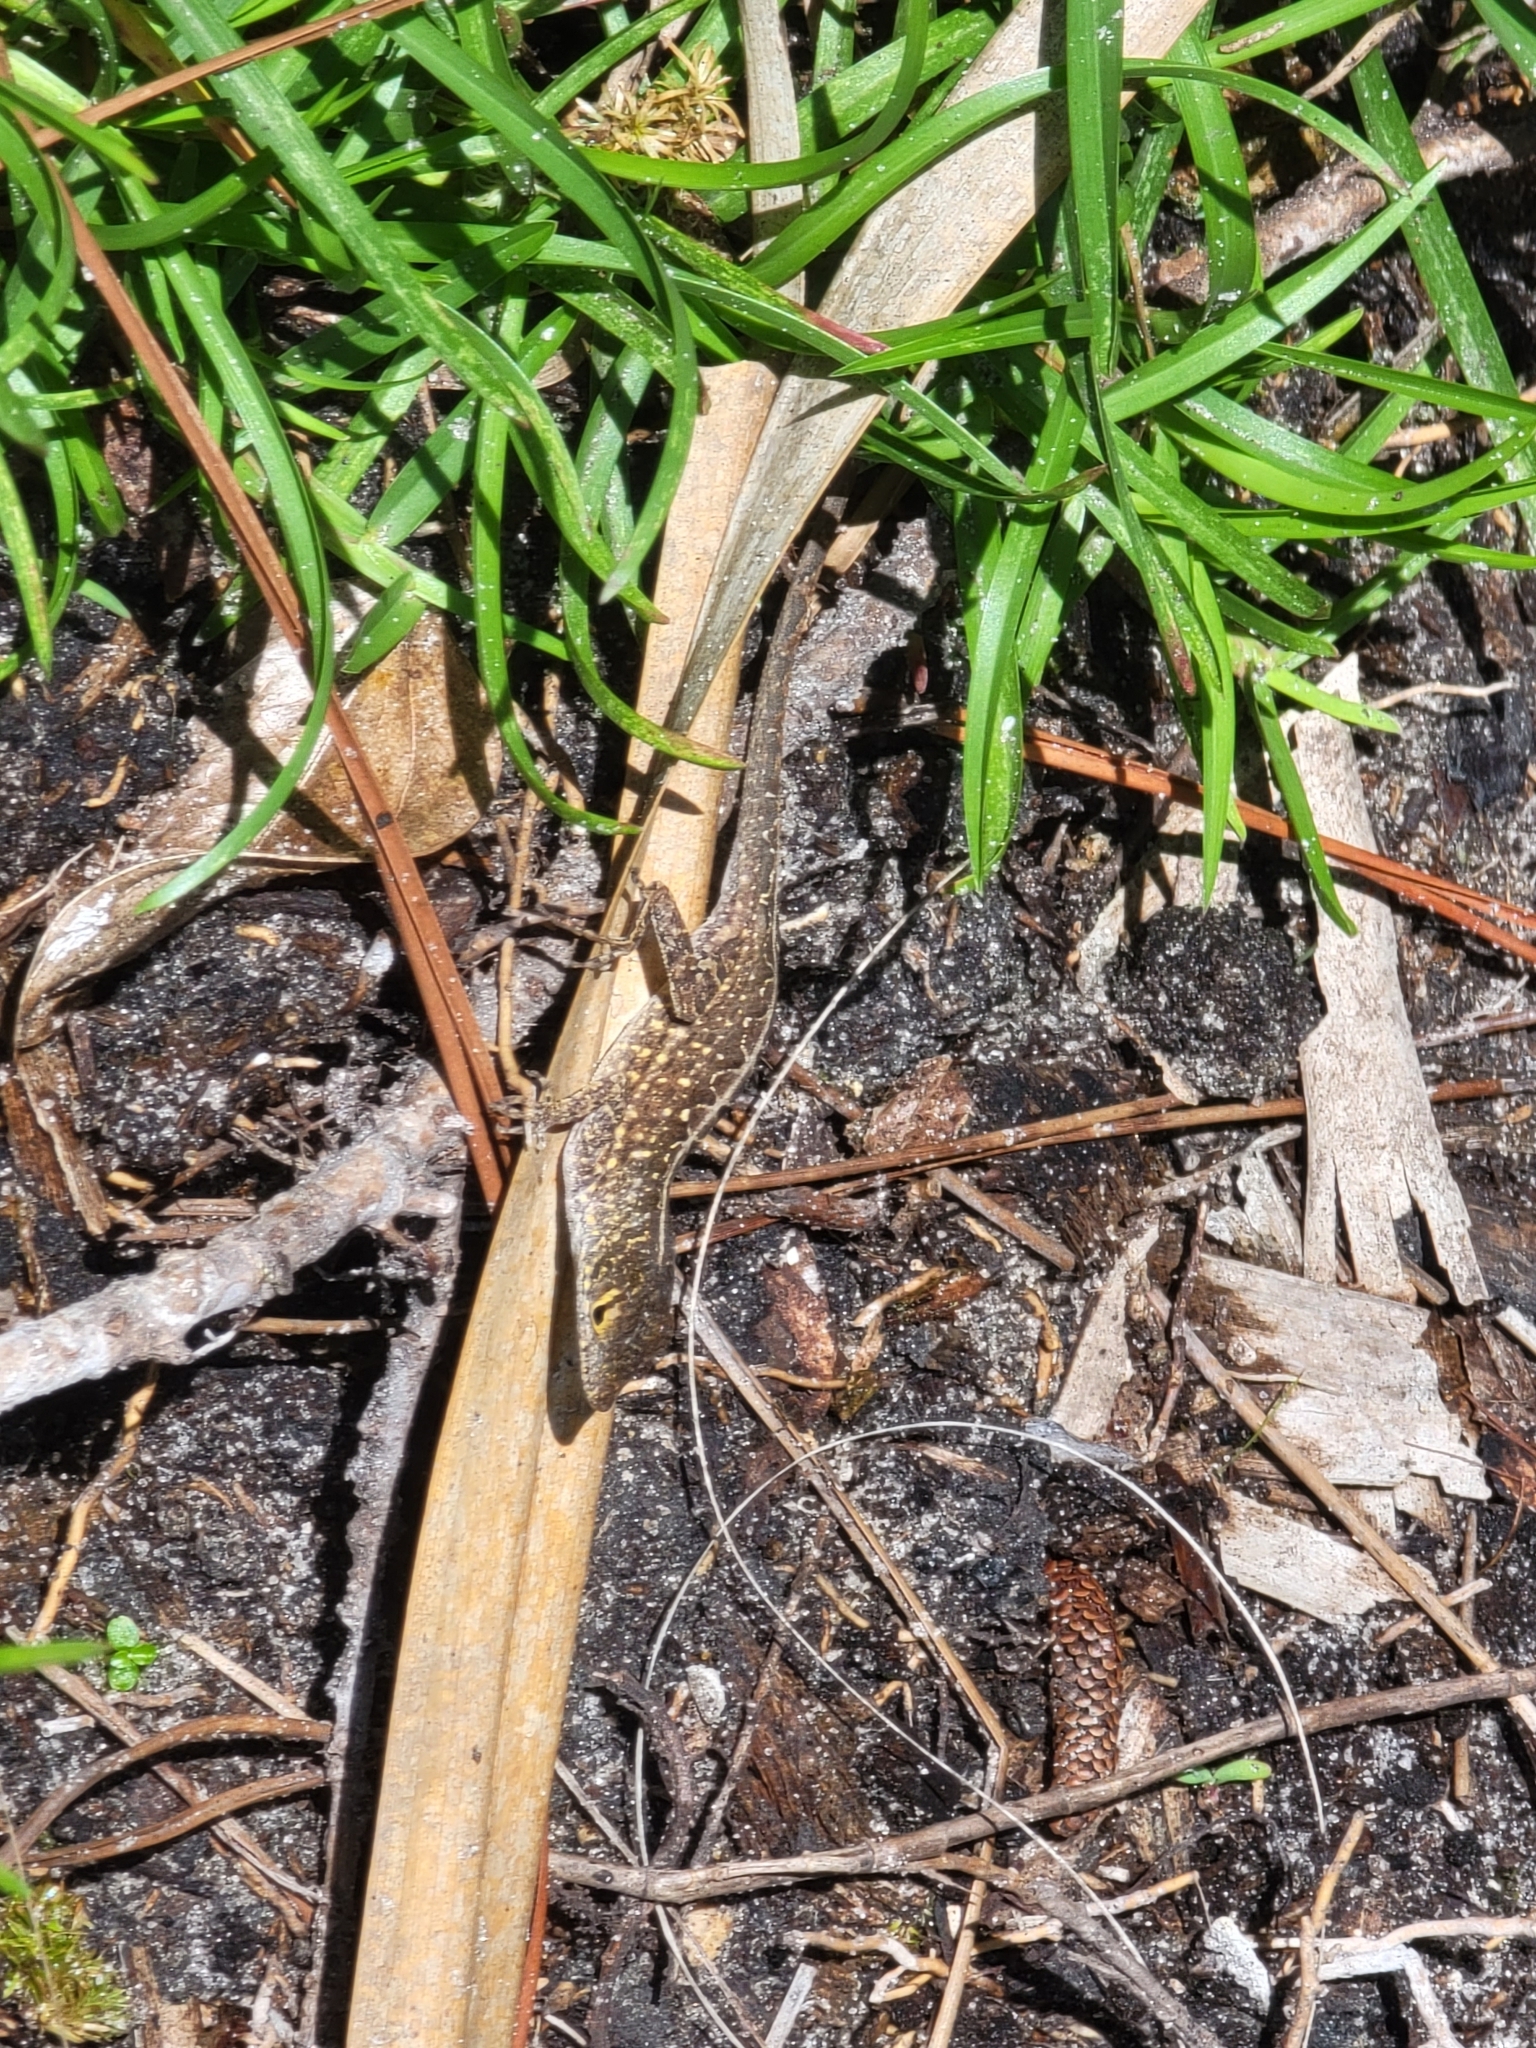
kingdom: Animalia
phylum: Chordata
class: Squamata
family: Dactyloidae
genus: Anolis
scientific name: Anolis sagrei
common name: Brown anole
